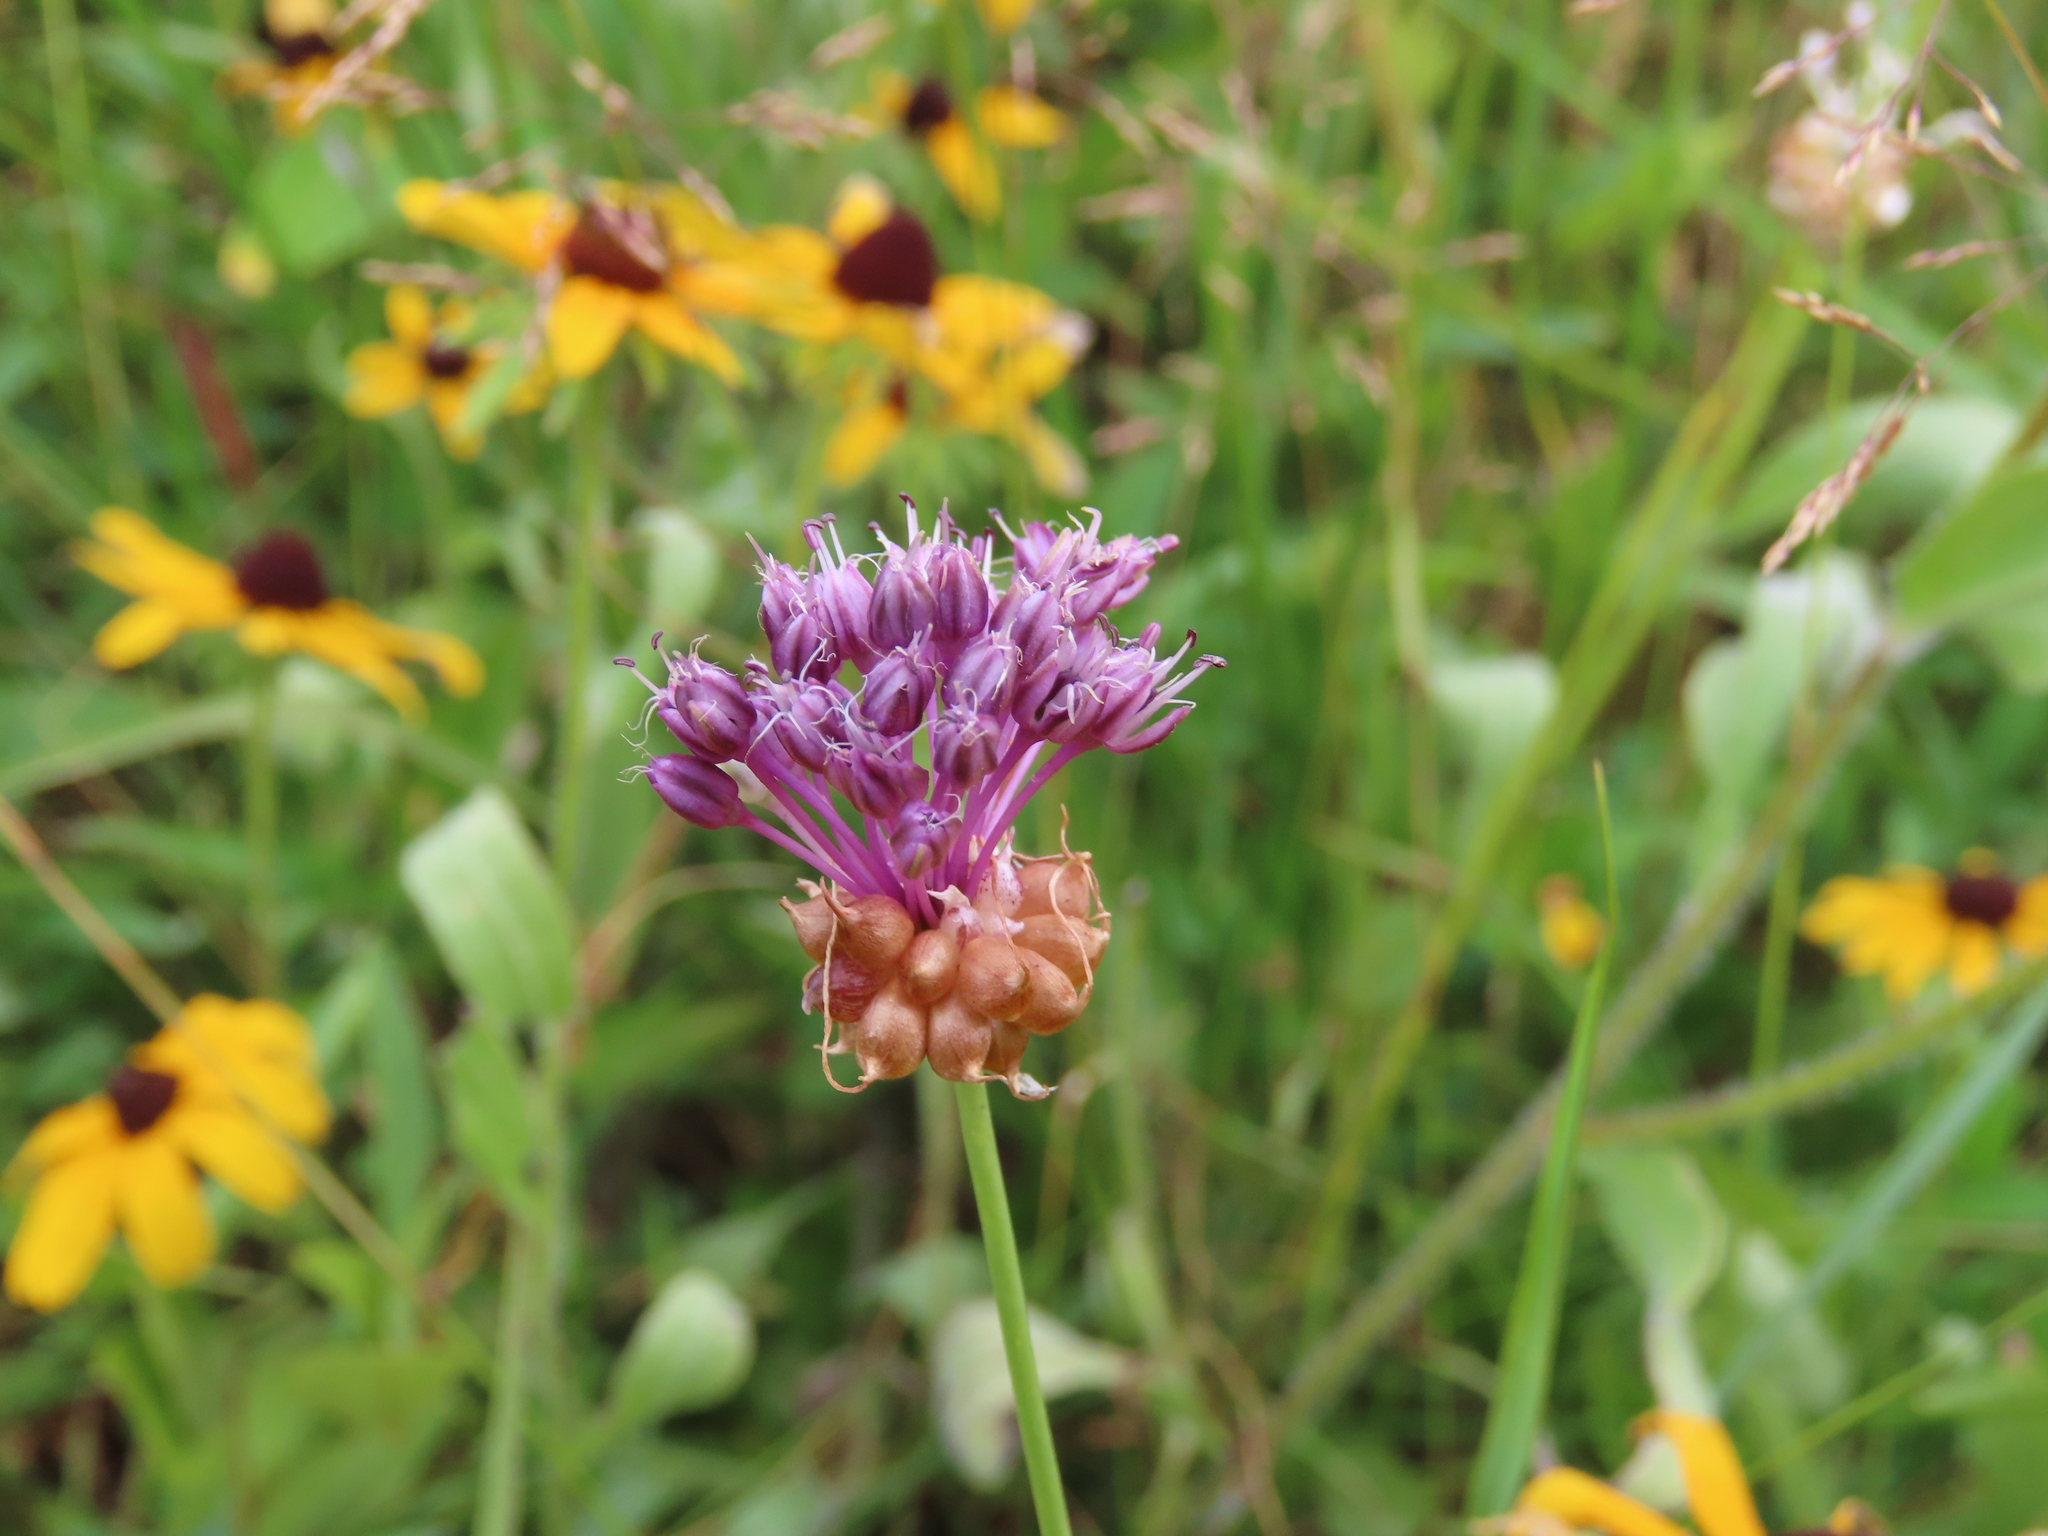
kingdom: Plantae
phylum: Tracheophyta
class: Liliopsida
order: Asparagales
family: Amaryllidaceae
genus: Allium
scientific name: Allium vineale
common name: Crow garlic
